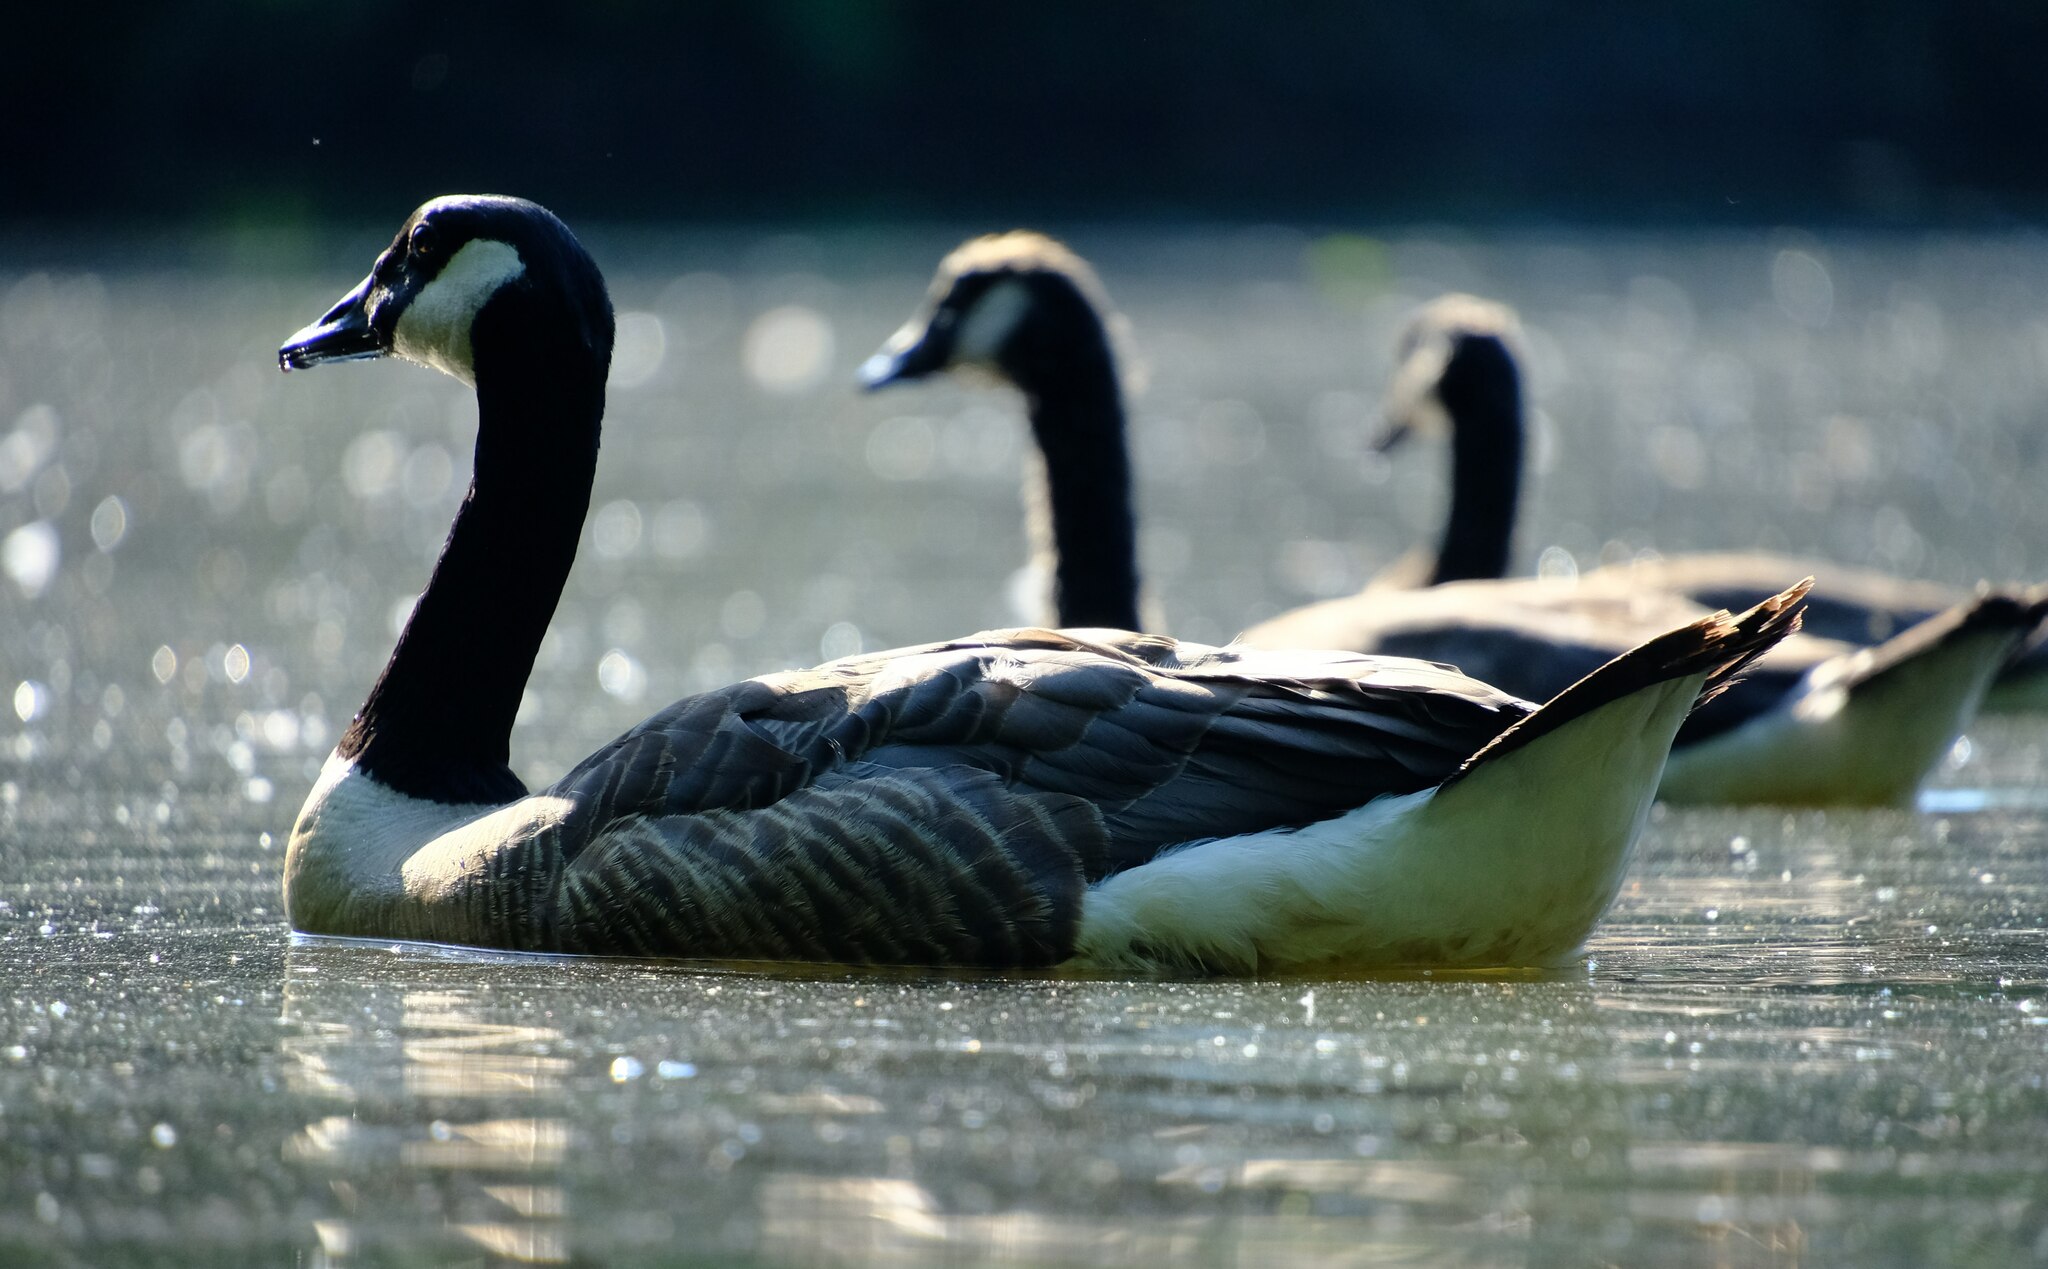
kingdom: Animalia
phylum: Chordata
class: Aves
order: Anseriformes
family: Anatidae
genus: Branta
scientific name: Branta canadensis
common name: Canada goose
